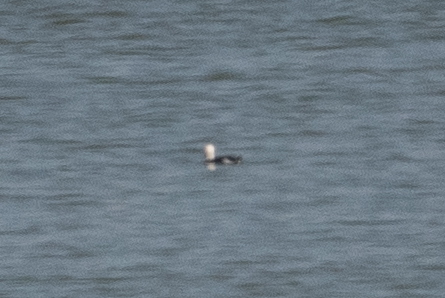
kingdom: Animalia
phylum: Chordata
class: Aves
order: Anseriformes
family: Anatidae
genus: Clangula
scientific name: Clangula hyemalis
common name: Long-tailed duck
